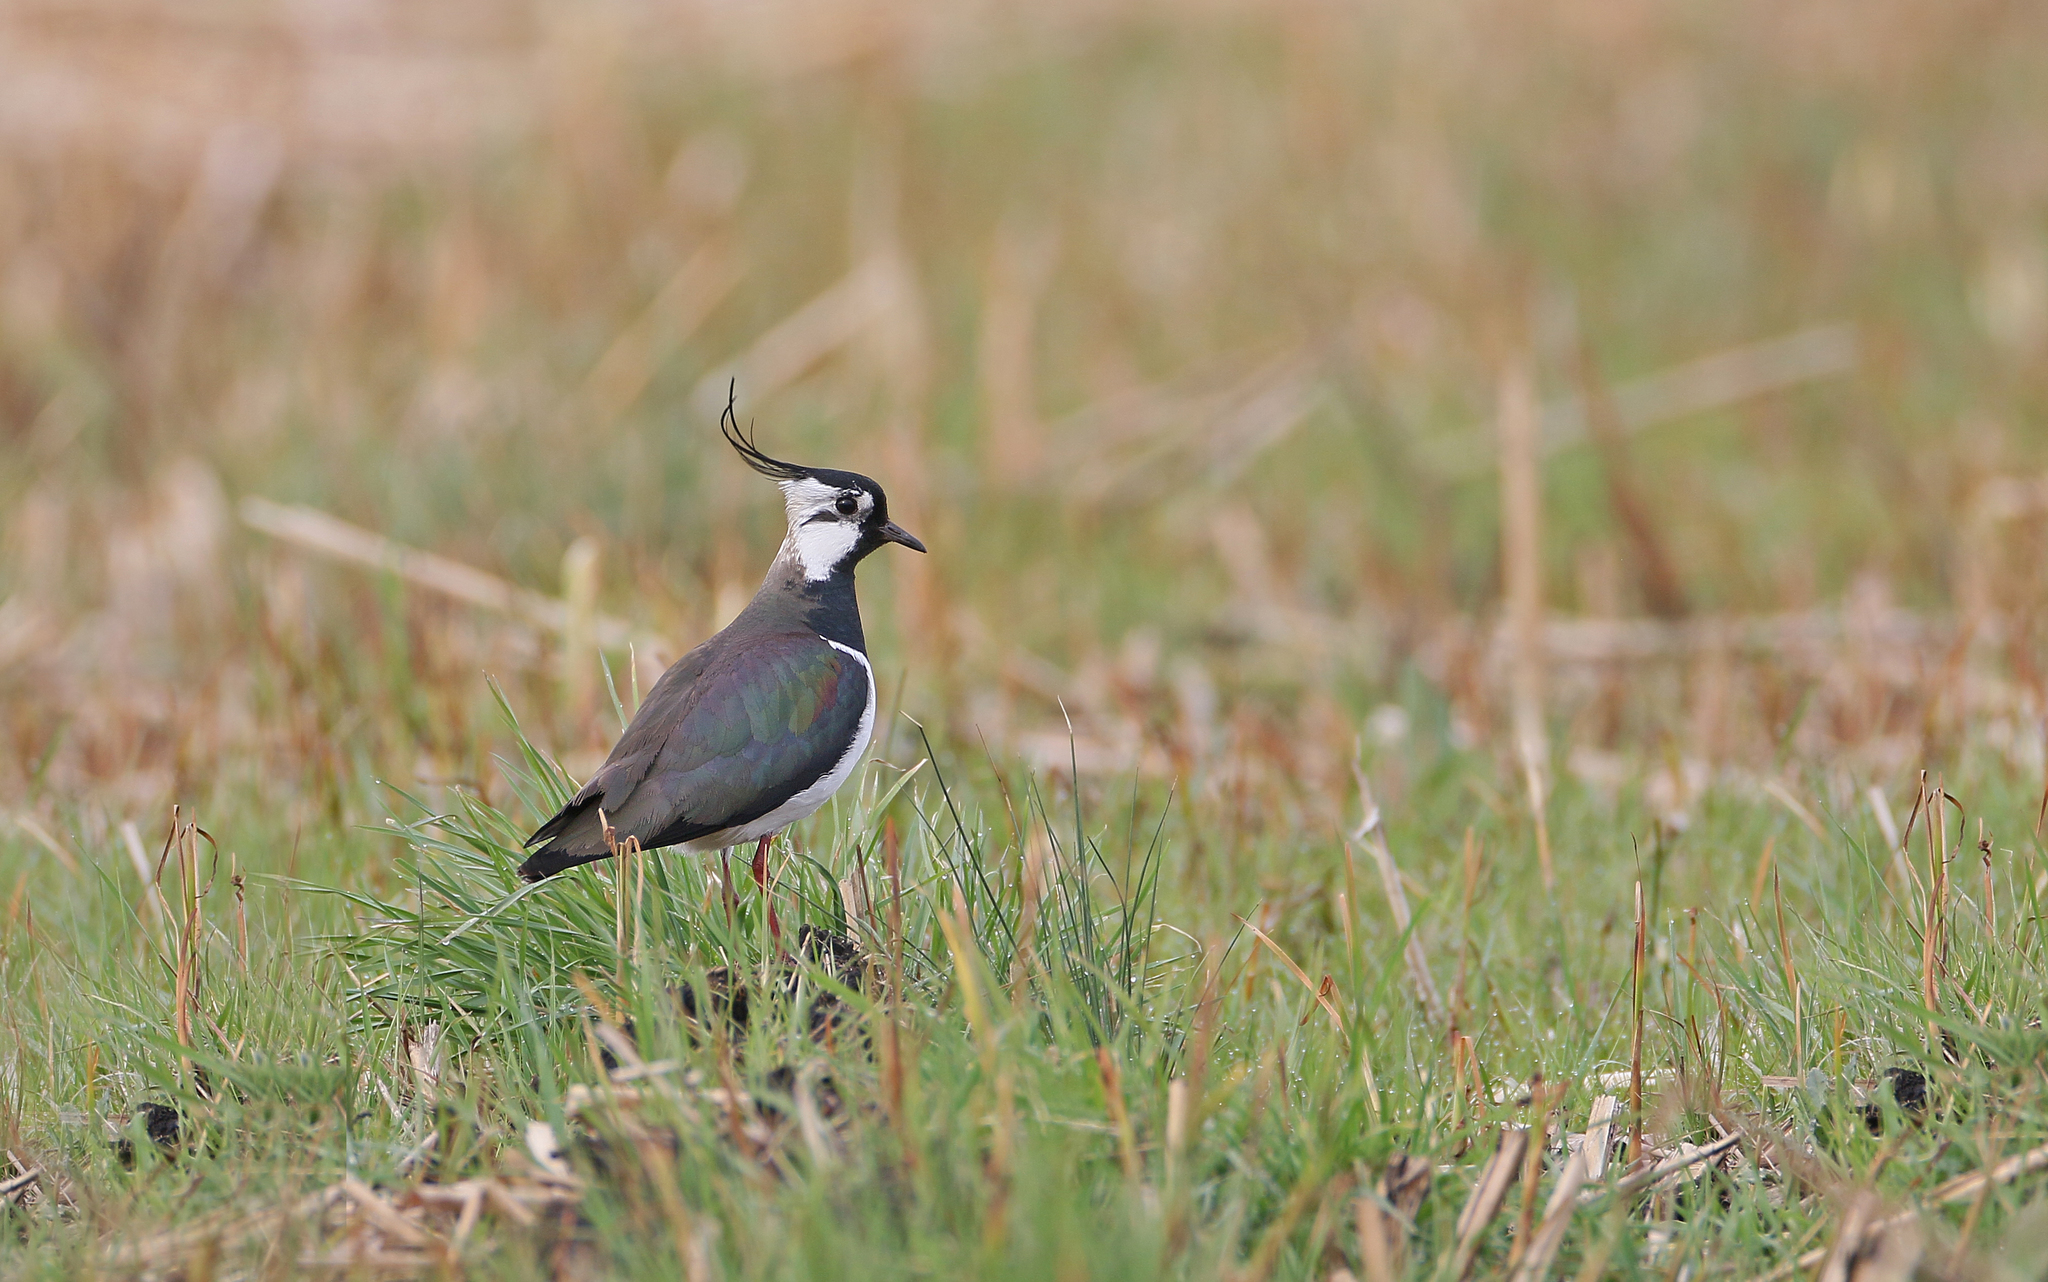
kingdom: Animalia
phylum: Chordata
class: Aves
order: Charadriiformes
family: Charadriidae
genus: Vanellus
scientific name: Vanellus vanellus
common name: Northern lapwing
